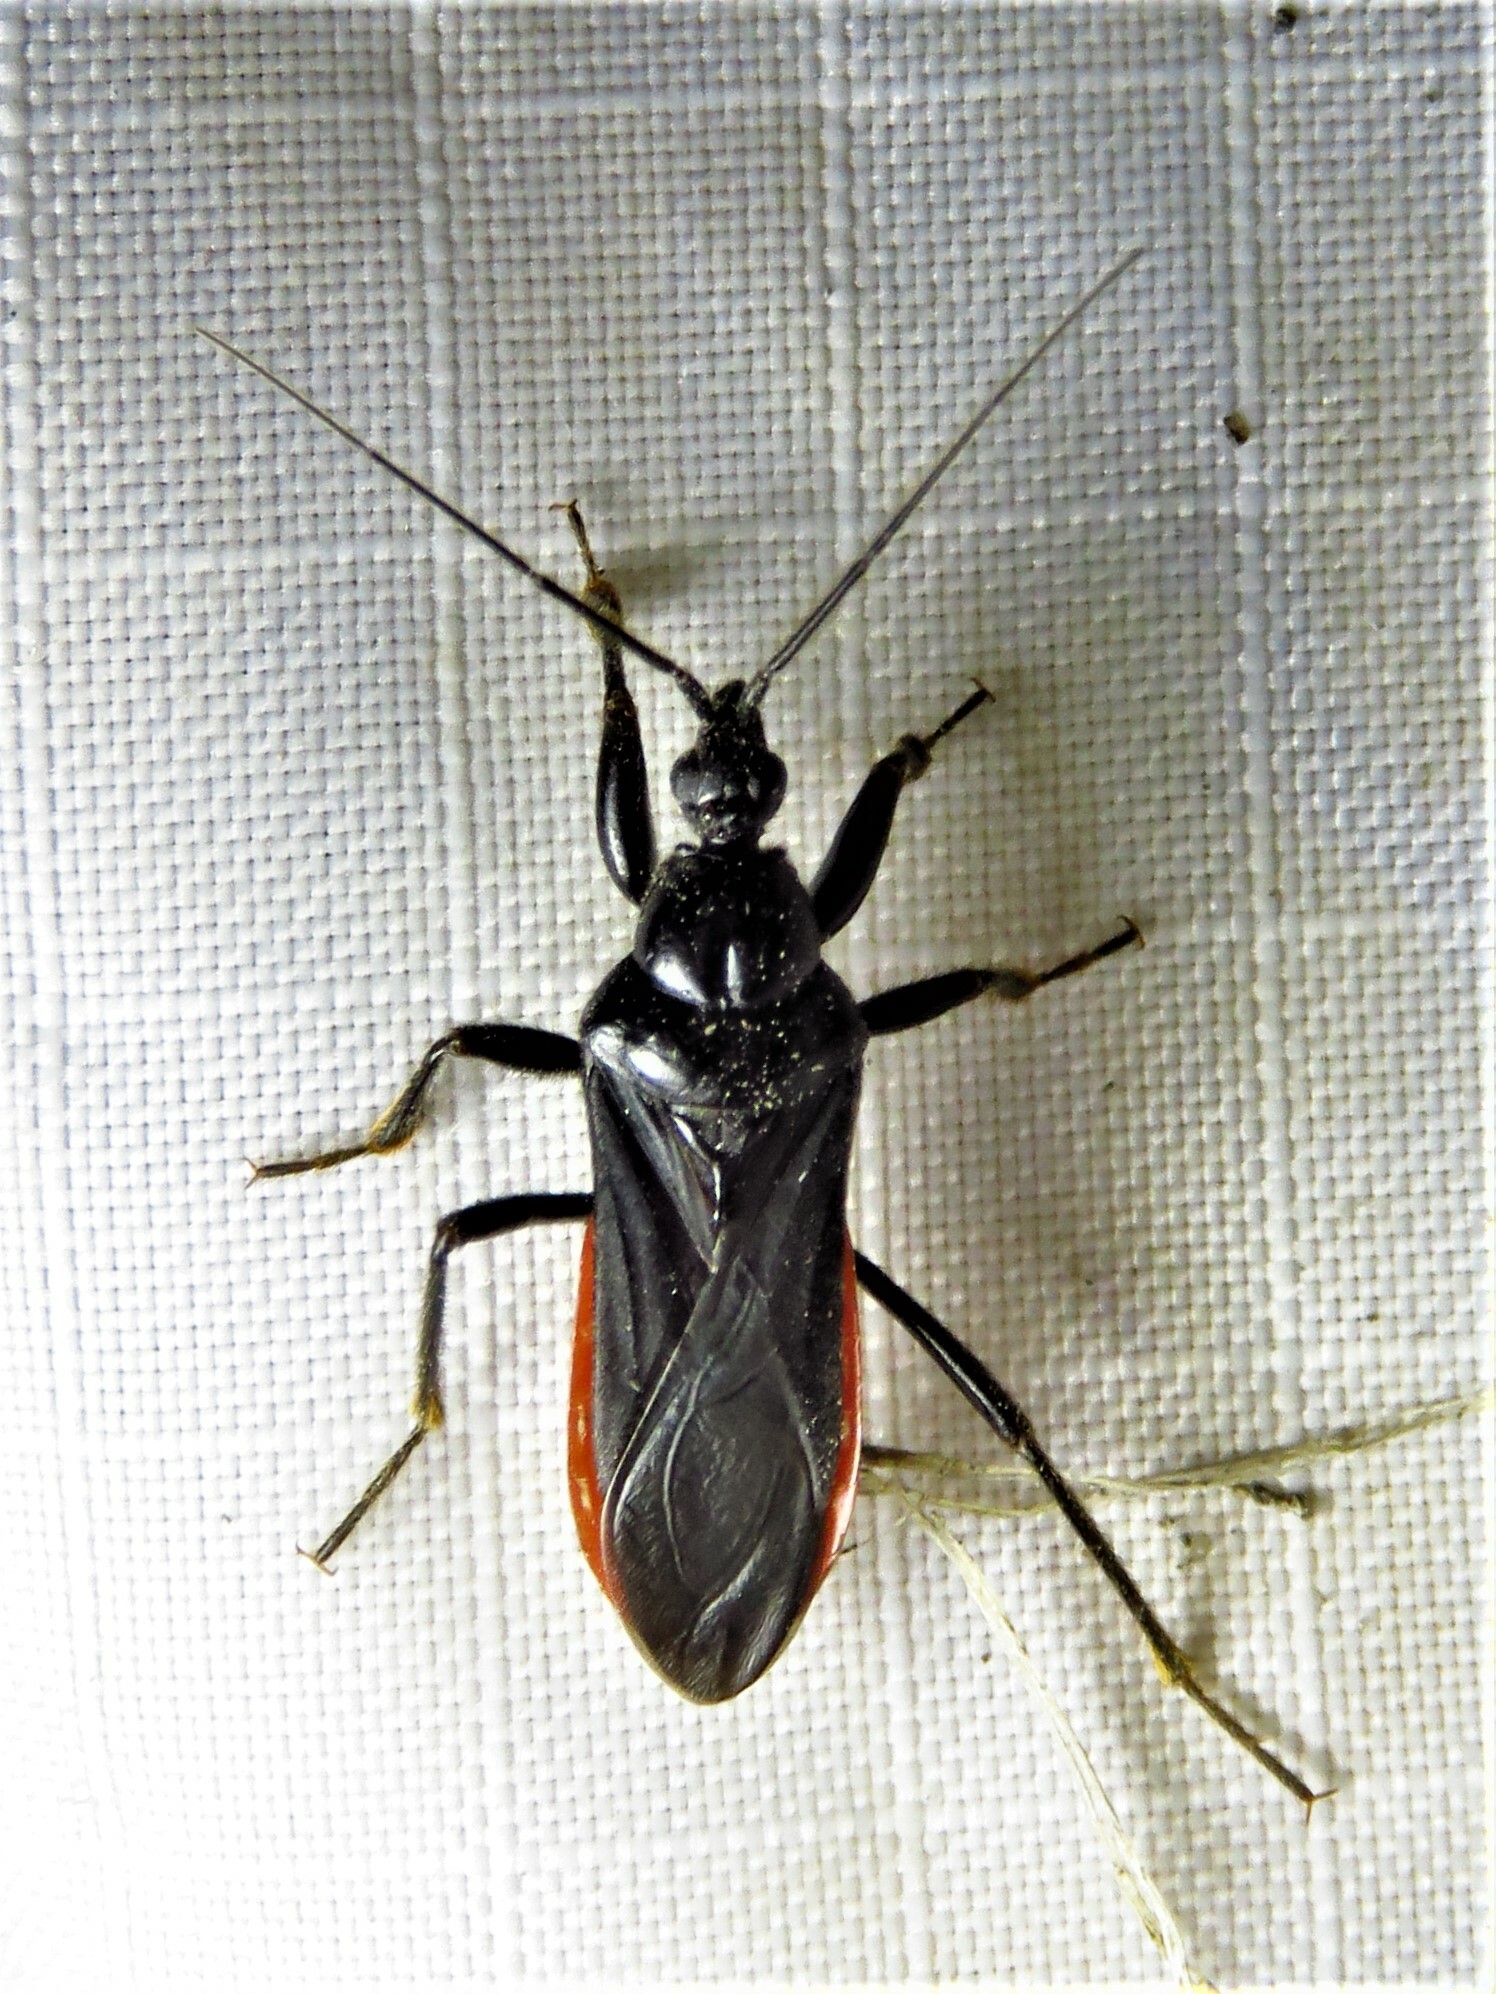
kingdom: Animalia
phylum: Arthropoda
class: Insecta
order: Hemiptera
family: Reduviidae
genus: Melanolestes
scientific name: Melanolestes picipes
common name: Assassin bug
